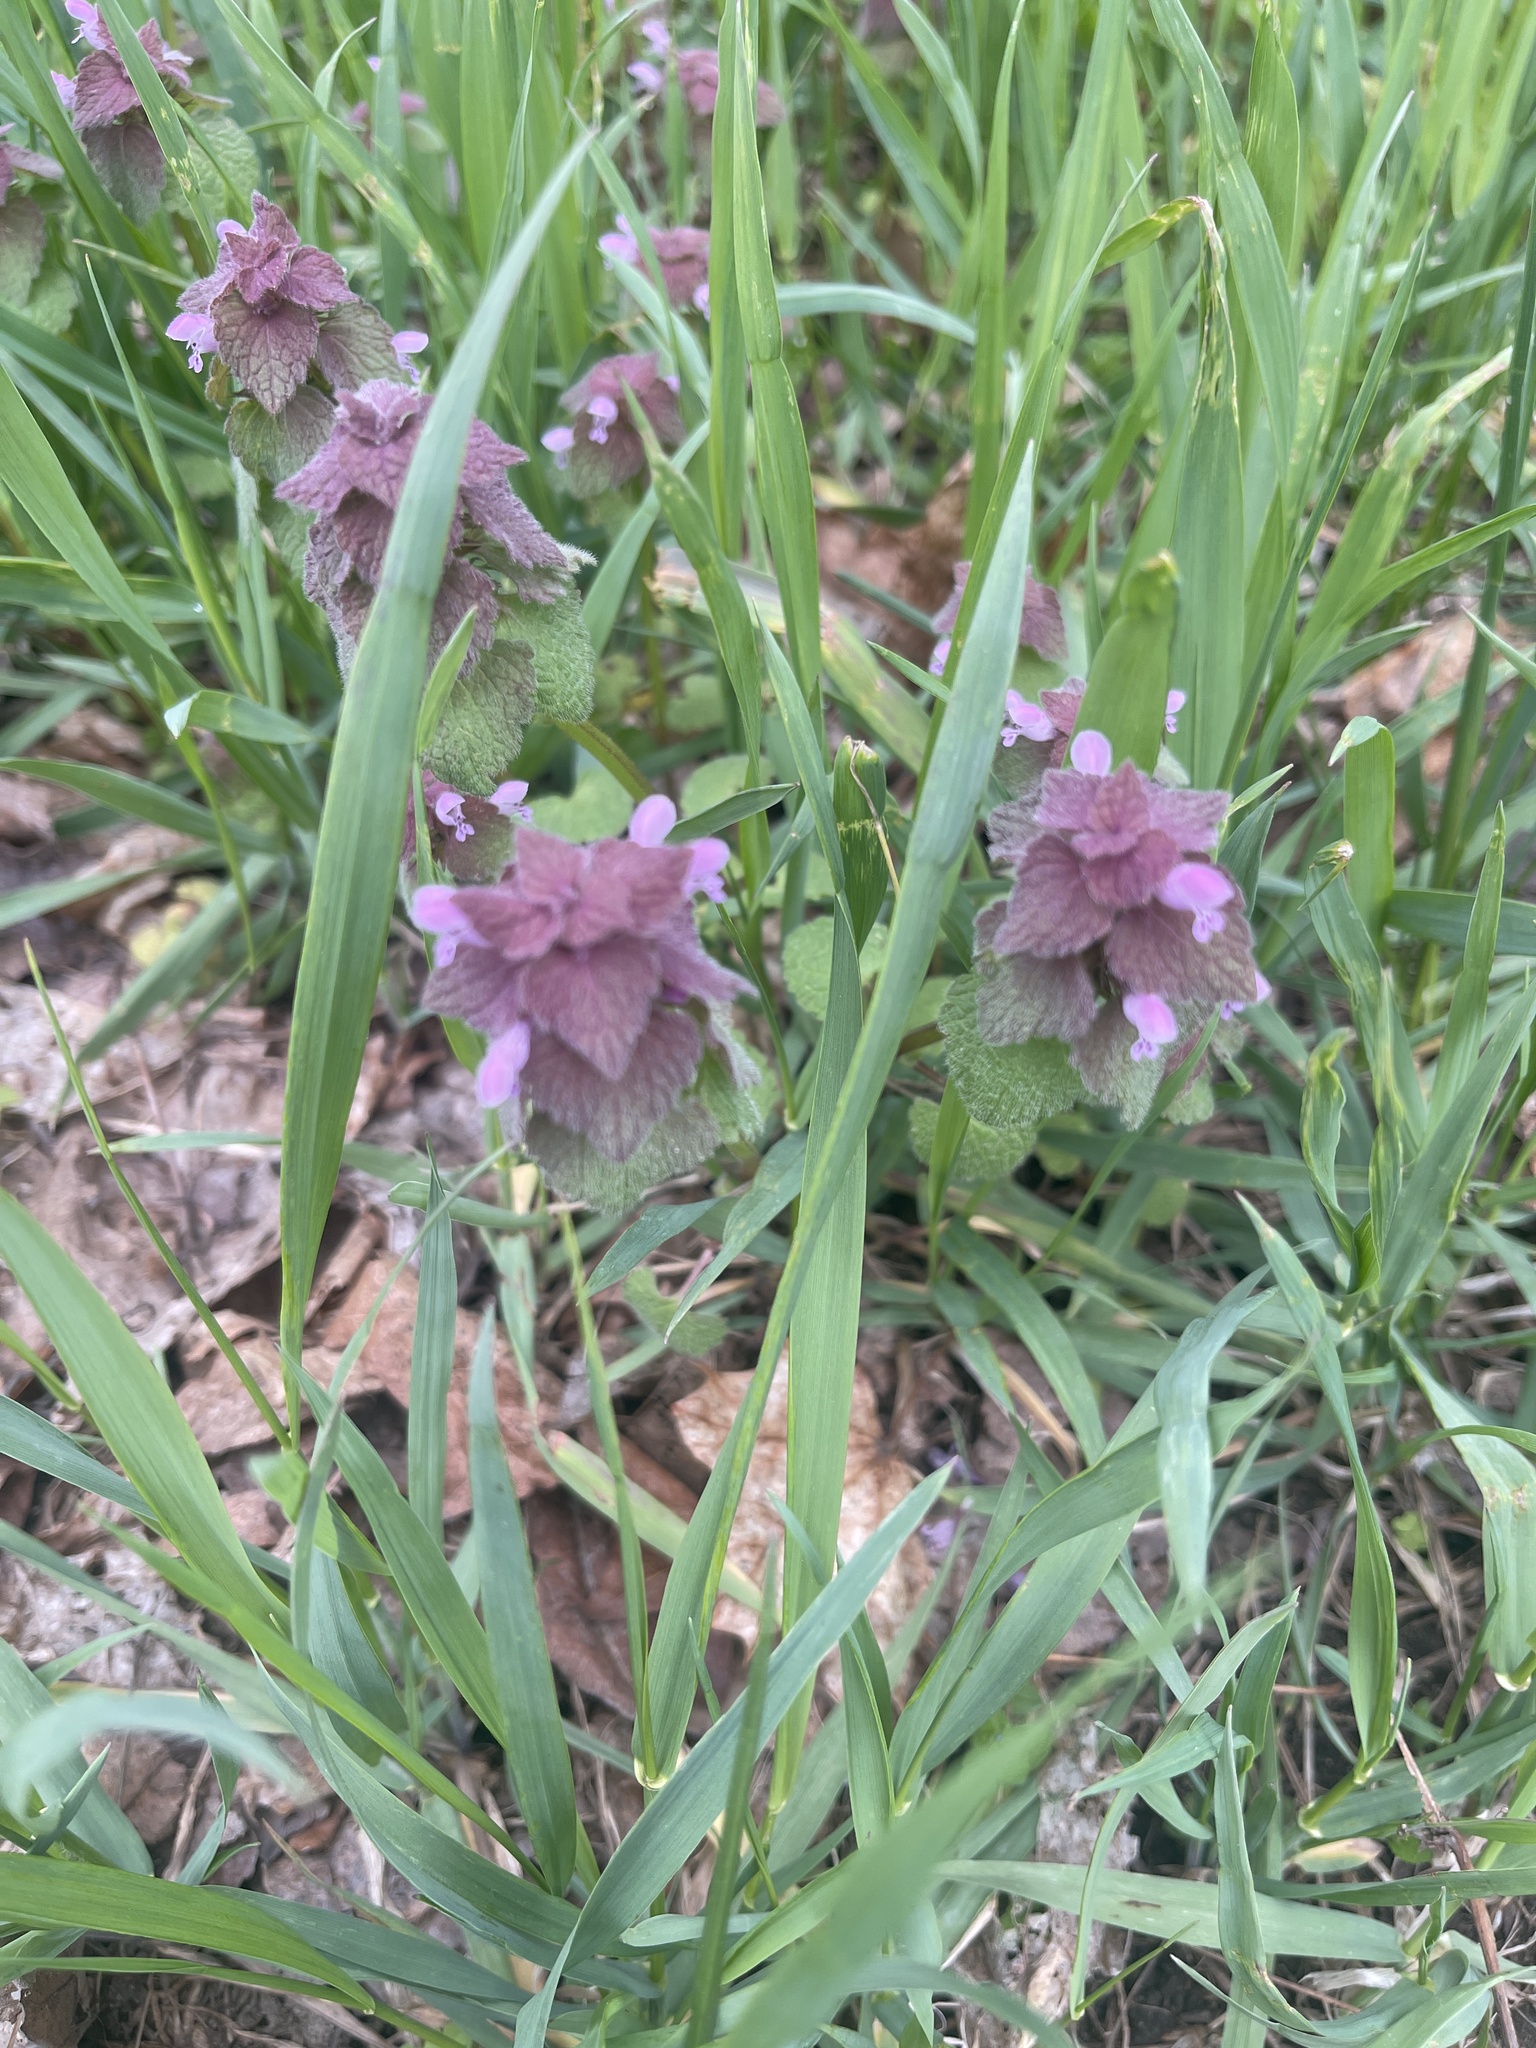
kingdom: Plantae
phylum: Tracheophyta
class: Magnoliopsida
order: Lamiales
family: Lamiaceae
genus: Lamium
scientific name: Lamium purpureum
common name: Red dead-nettle
